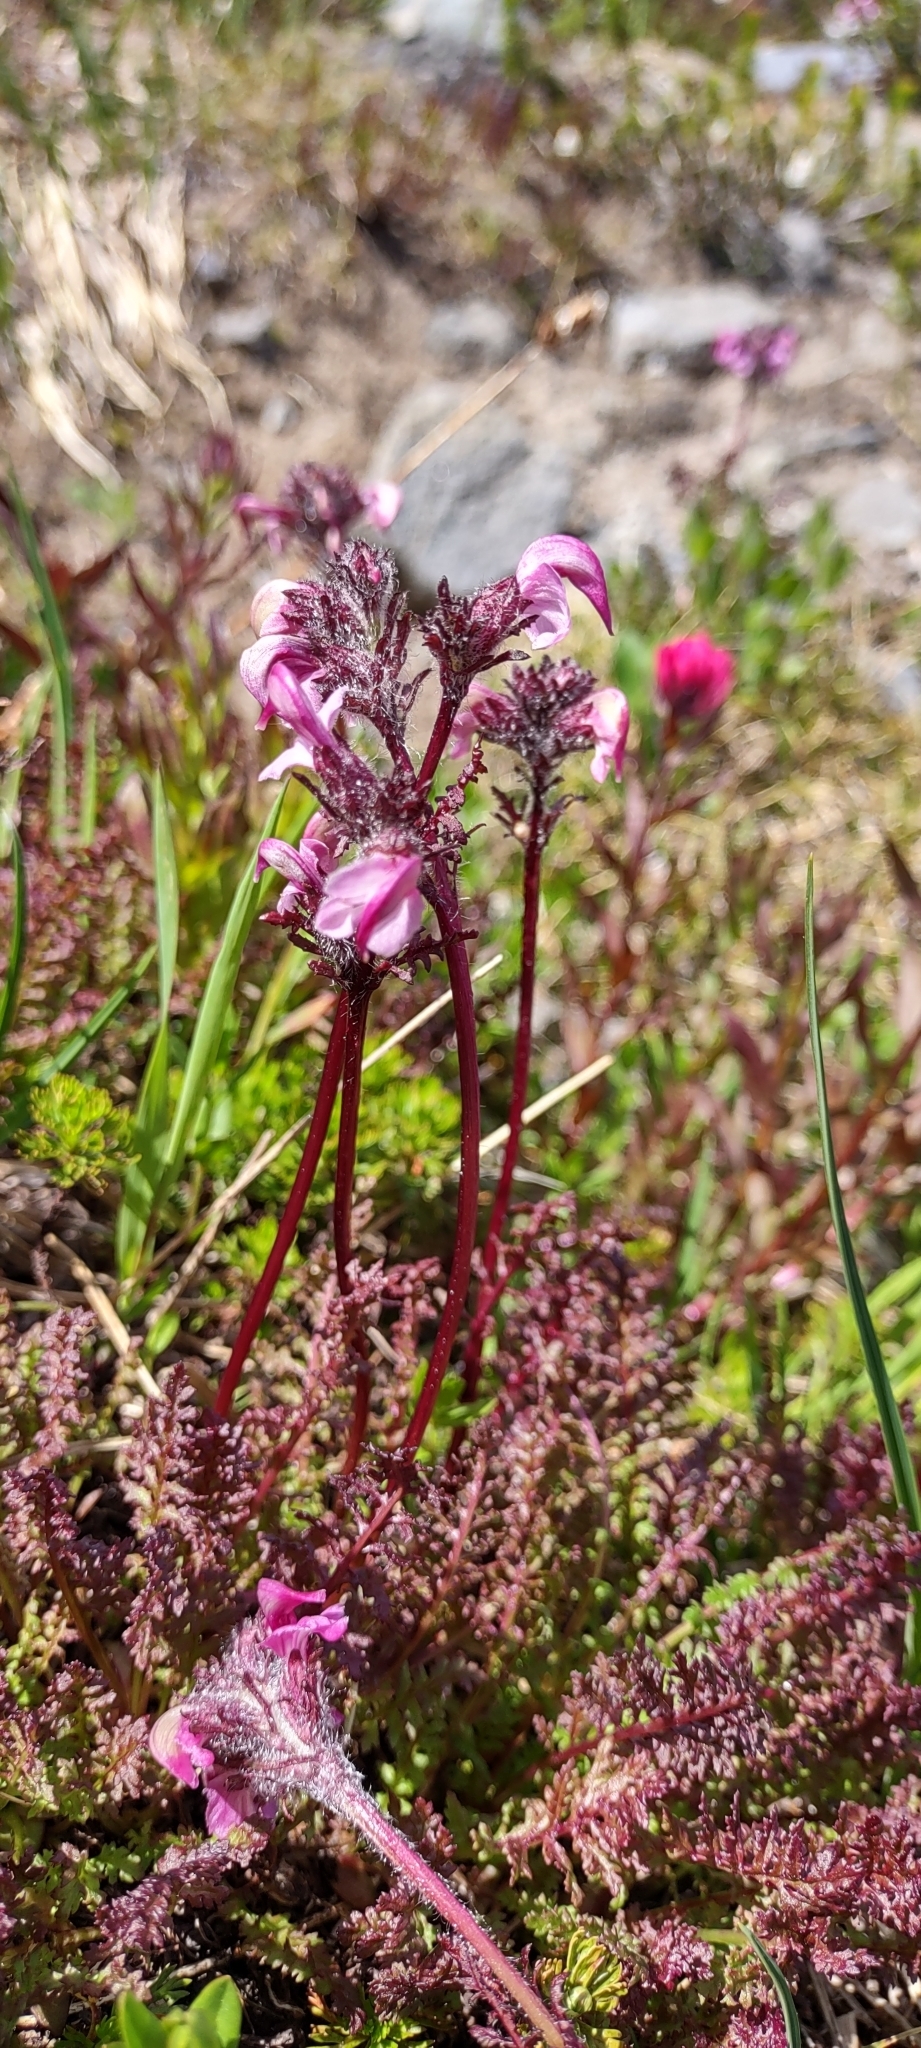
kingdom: Plantae
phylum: Tracheophyta
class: Magnoliopsida
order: Lamiales
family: Orobanchaceae
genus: Pedicularis
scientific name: Pedicularis ornithorhynchos
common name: Bird's-beak lousewort
